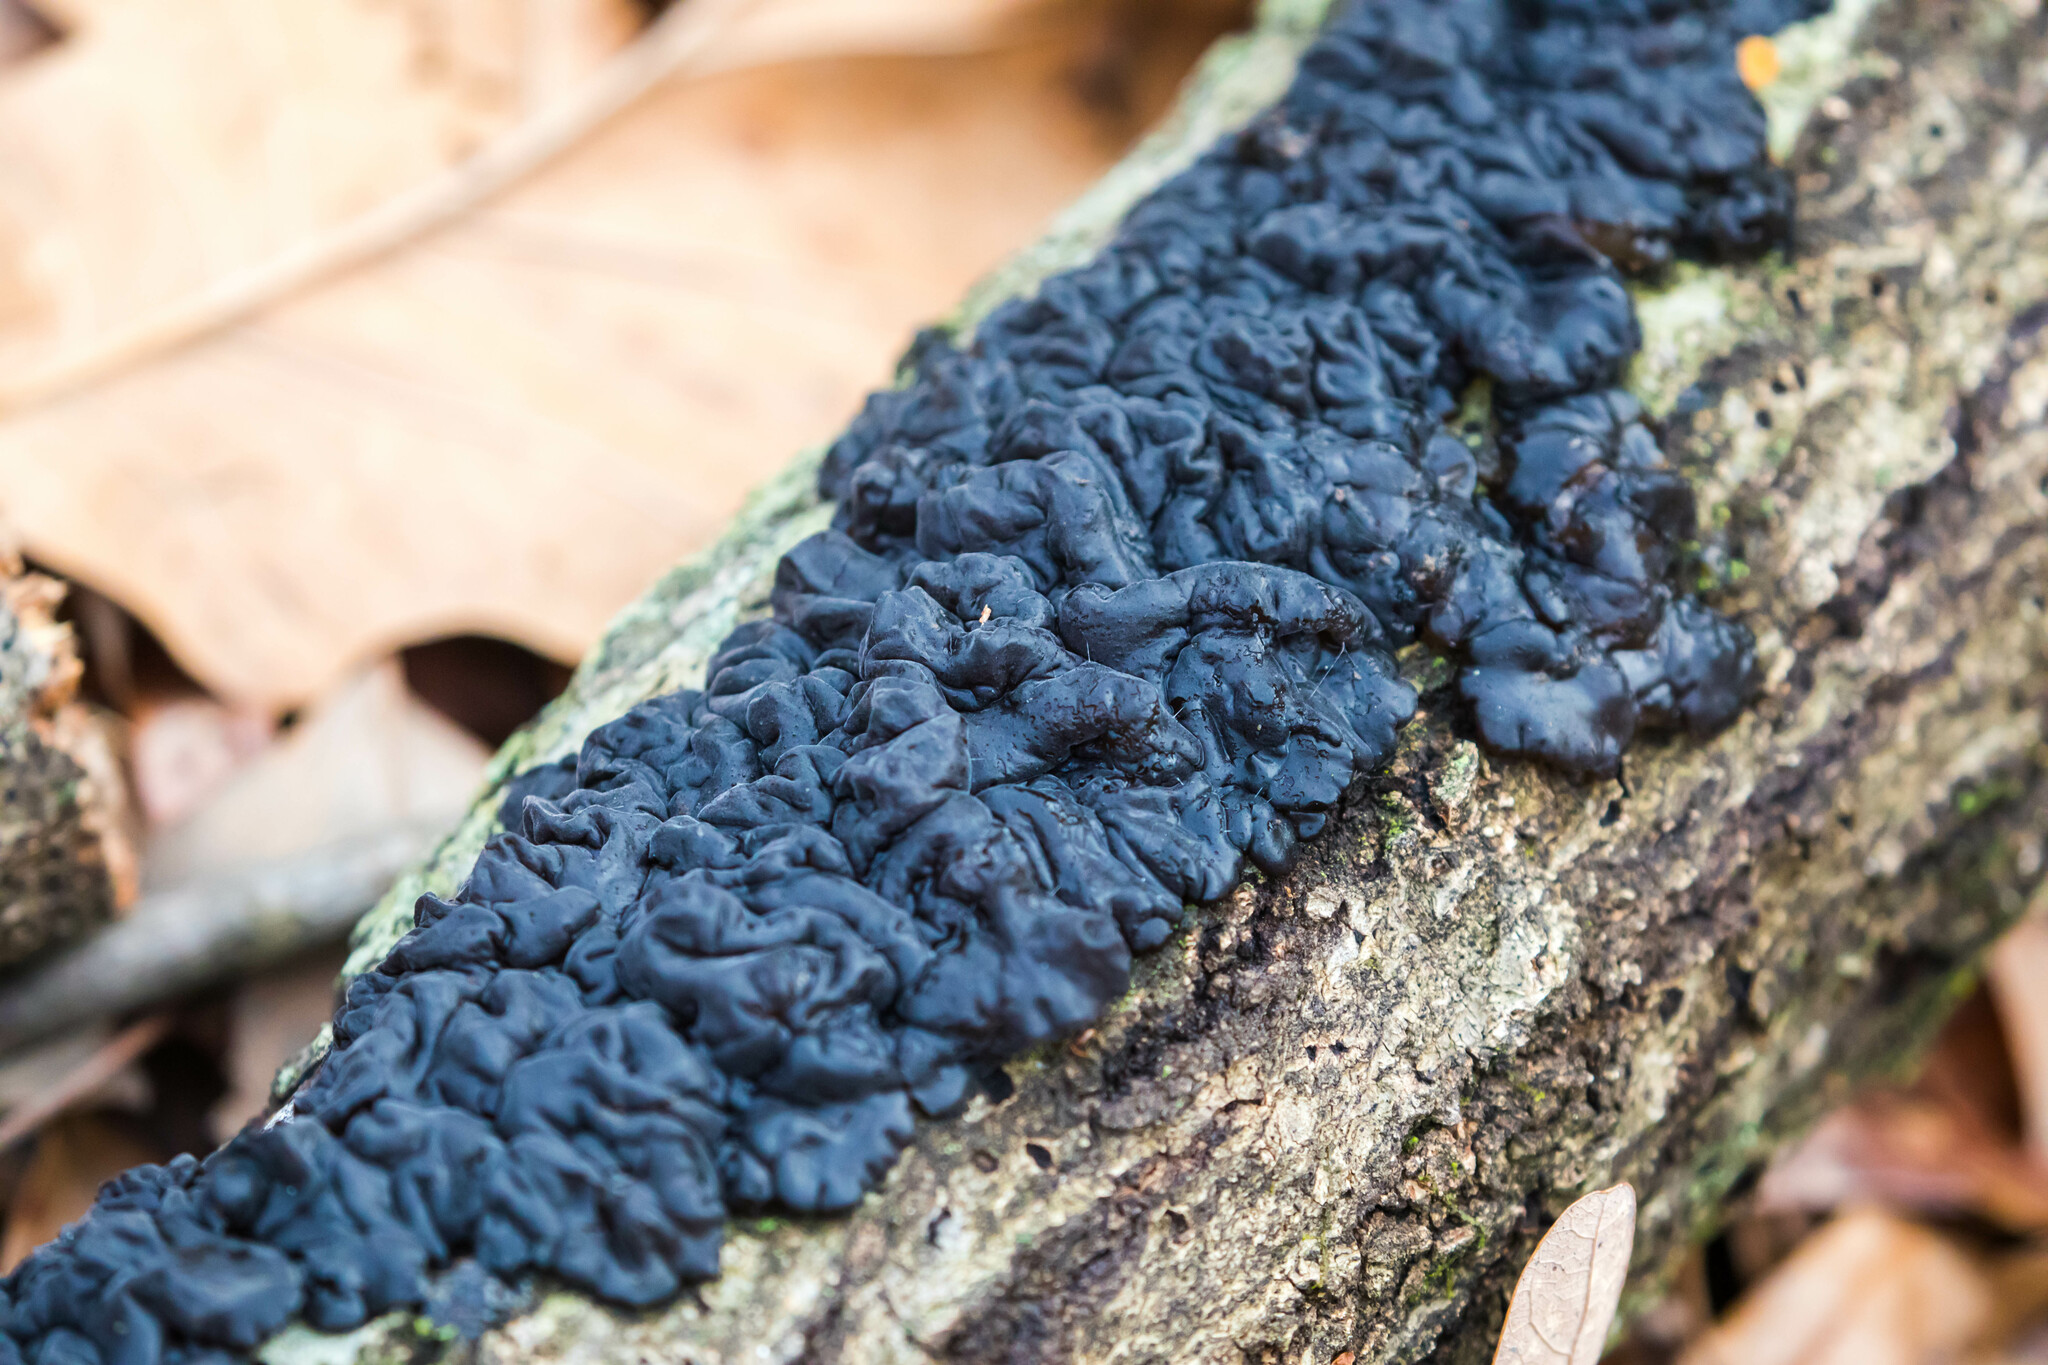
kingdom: Fungi
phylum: Basidiomycota
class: Agaricomycetes
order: Auriculariales
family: Auriculariaceae
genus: Exidia
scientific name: Exidia nigricans
